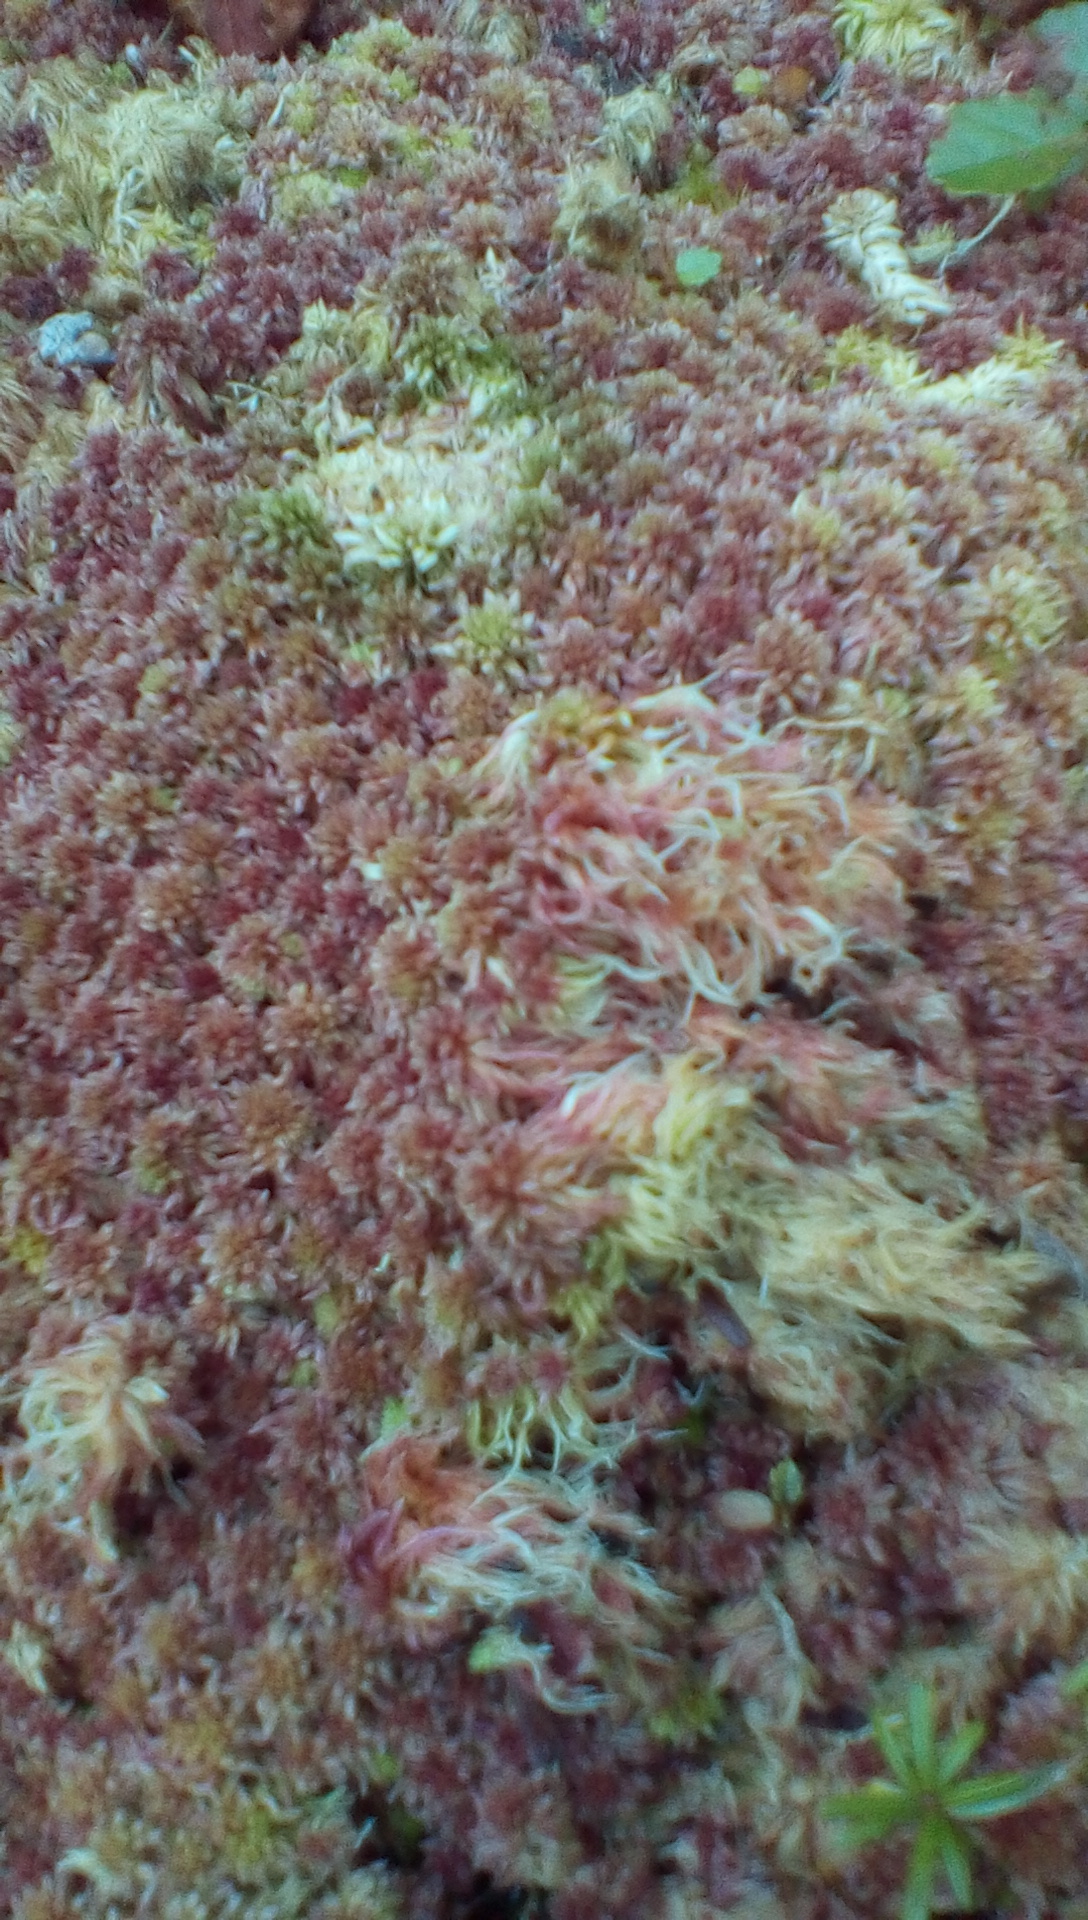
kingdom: Plantae
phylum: Bryophyta
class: Sphagnopsida
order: Sphagnales
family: Sphagnaceae
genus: Sphagnum
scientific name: Sphagnum
